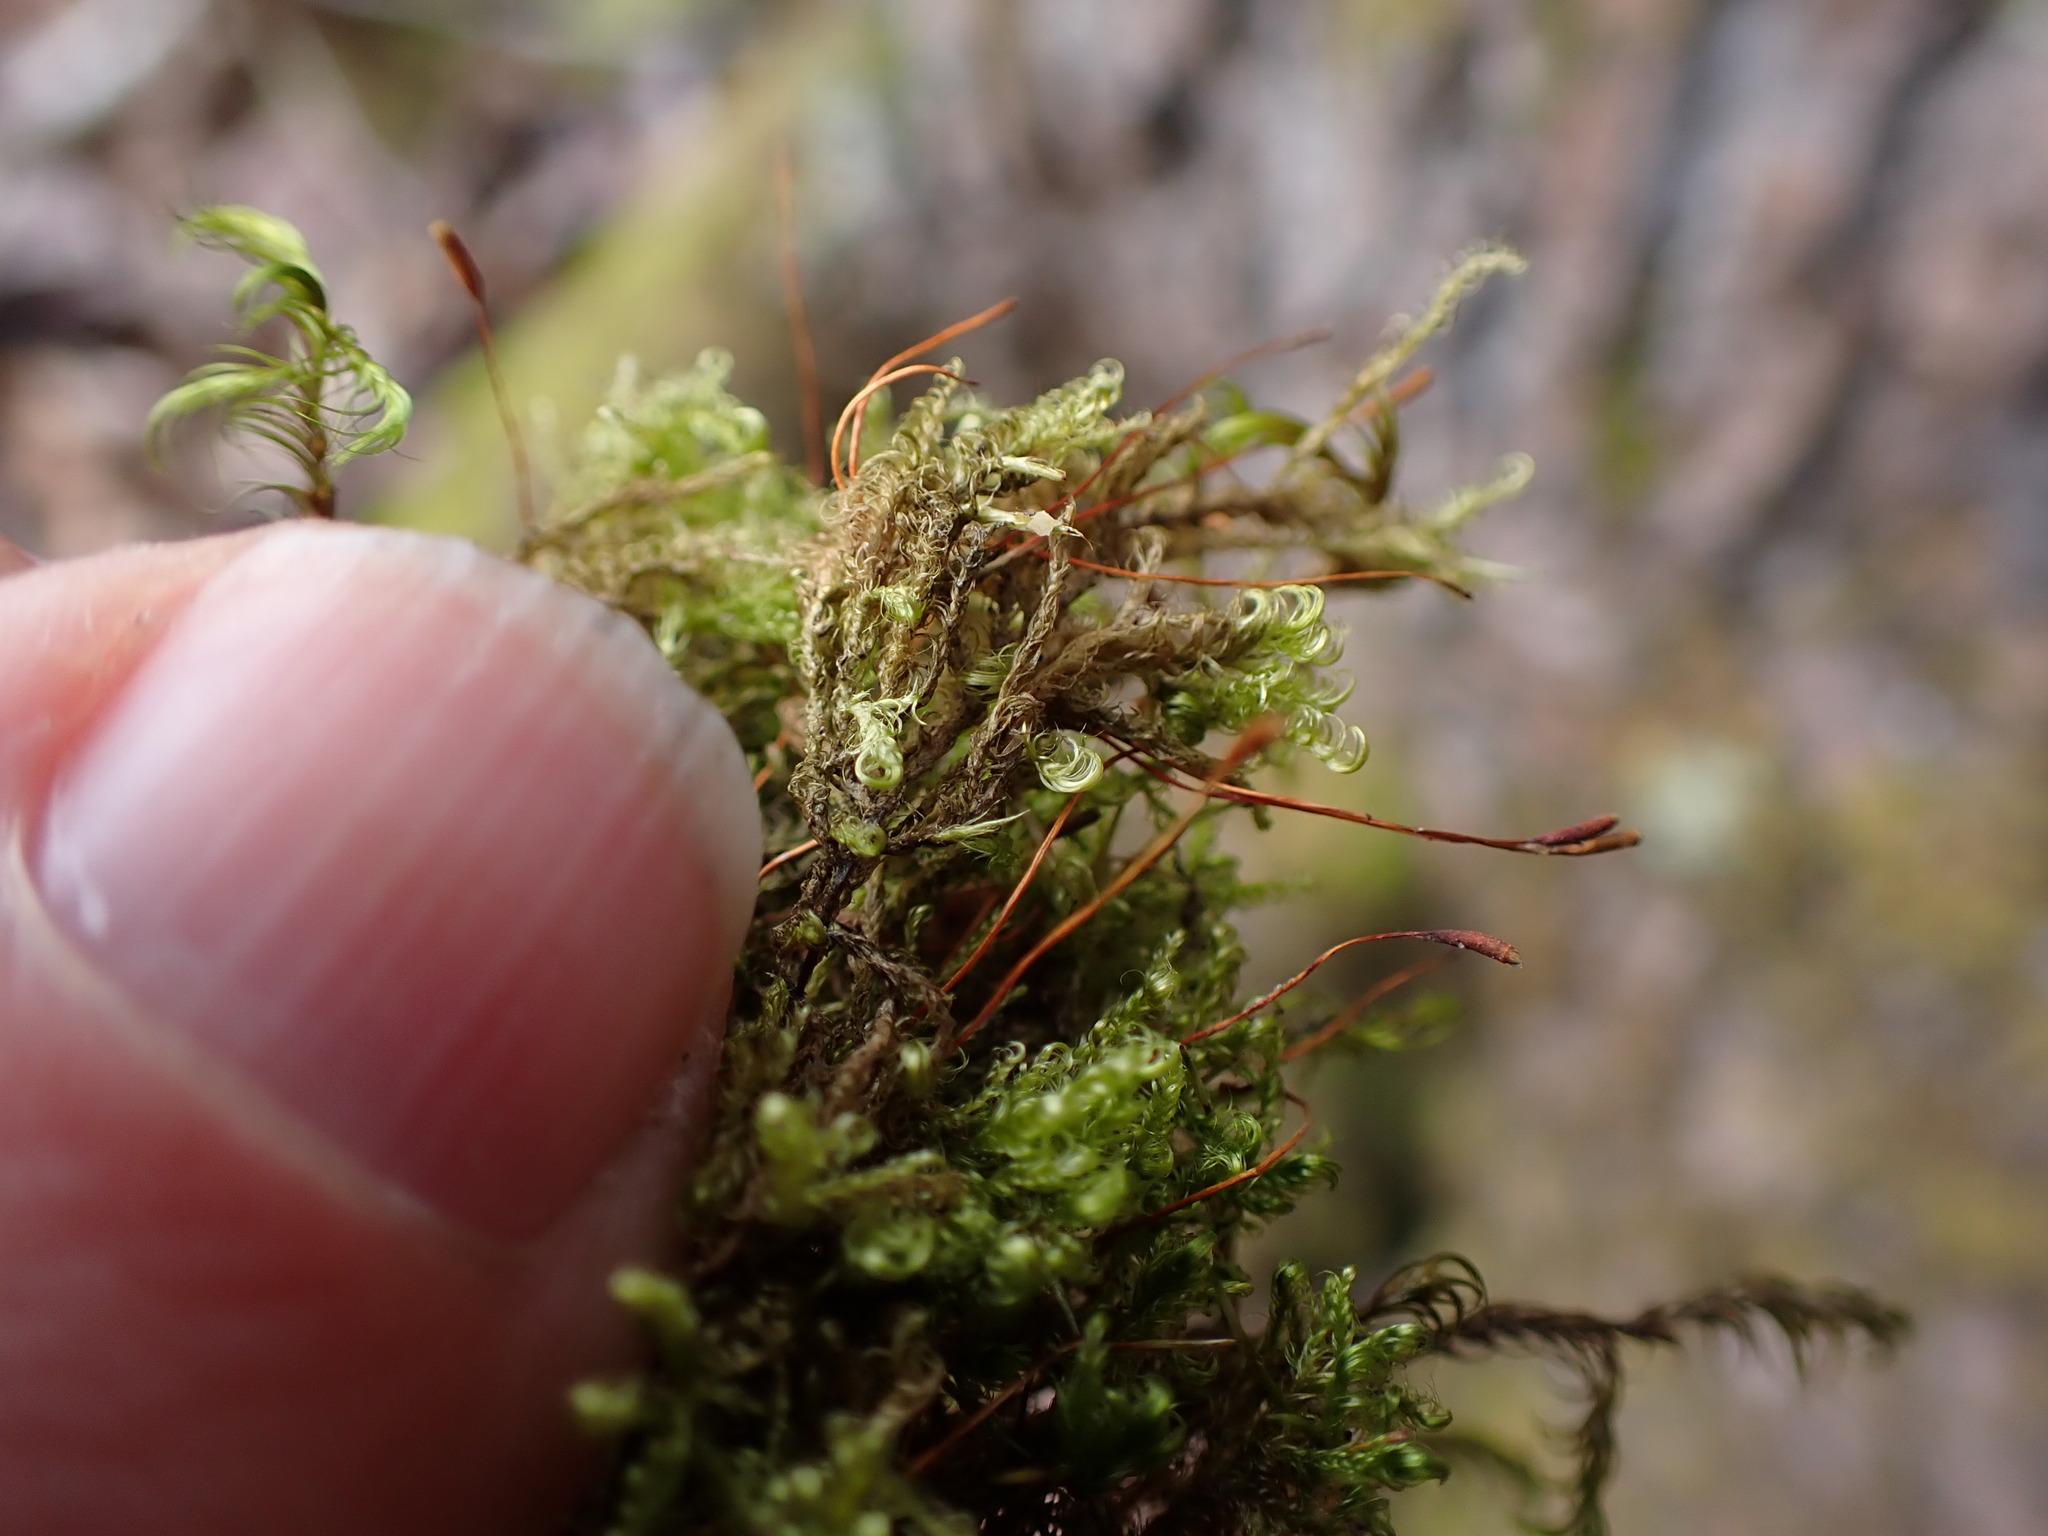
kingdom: Plantae
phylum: Bryophyta
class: Bryopsida
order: Hypnales
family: Scorpidiaceae
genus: Sanionia
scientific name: Sanionia uncinata
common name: Sickle moss
